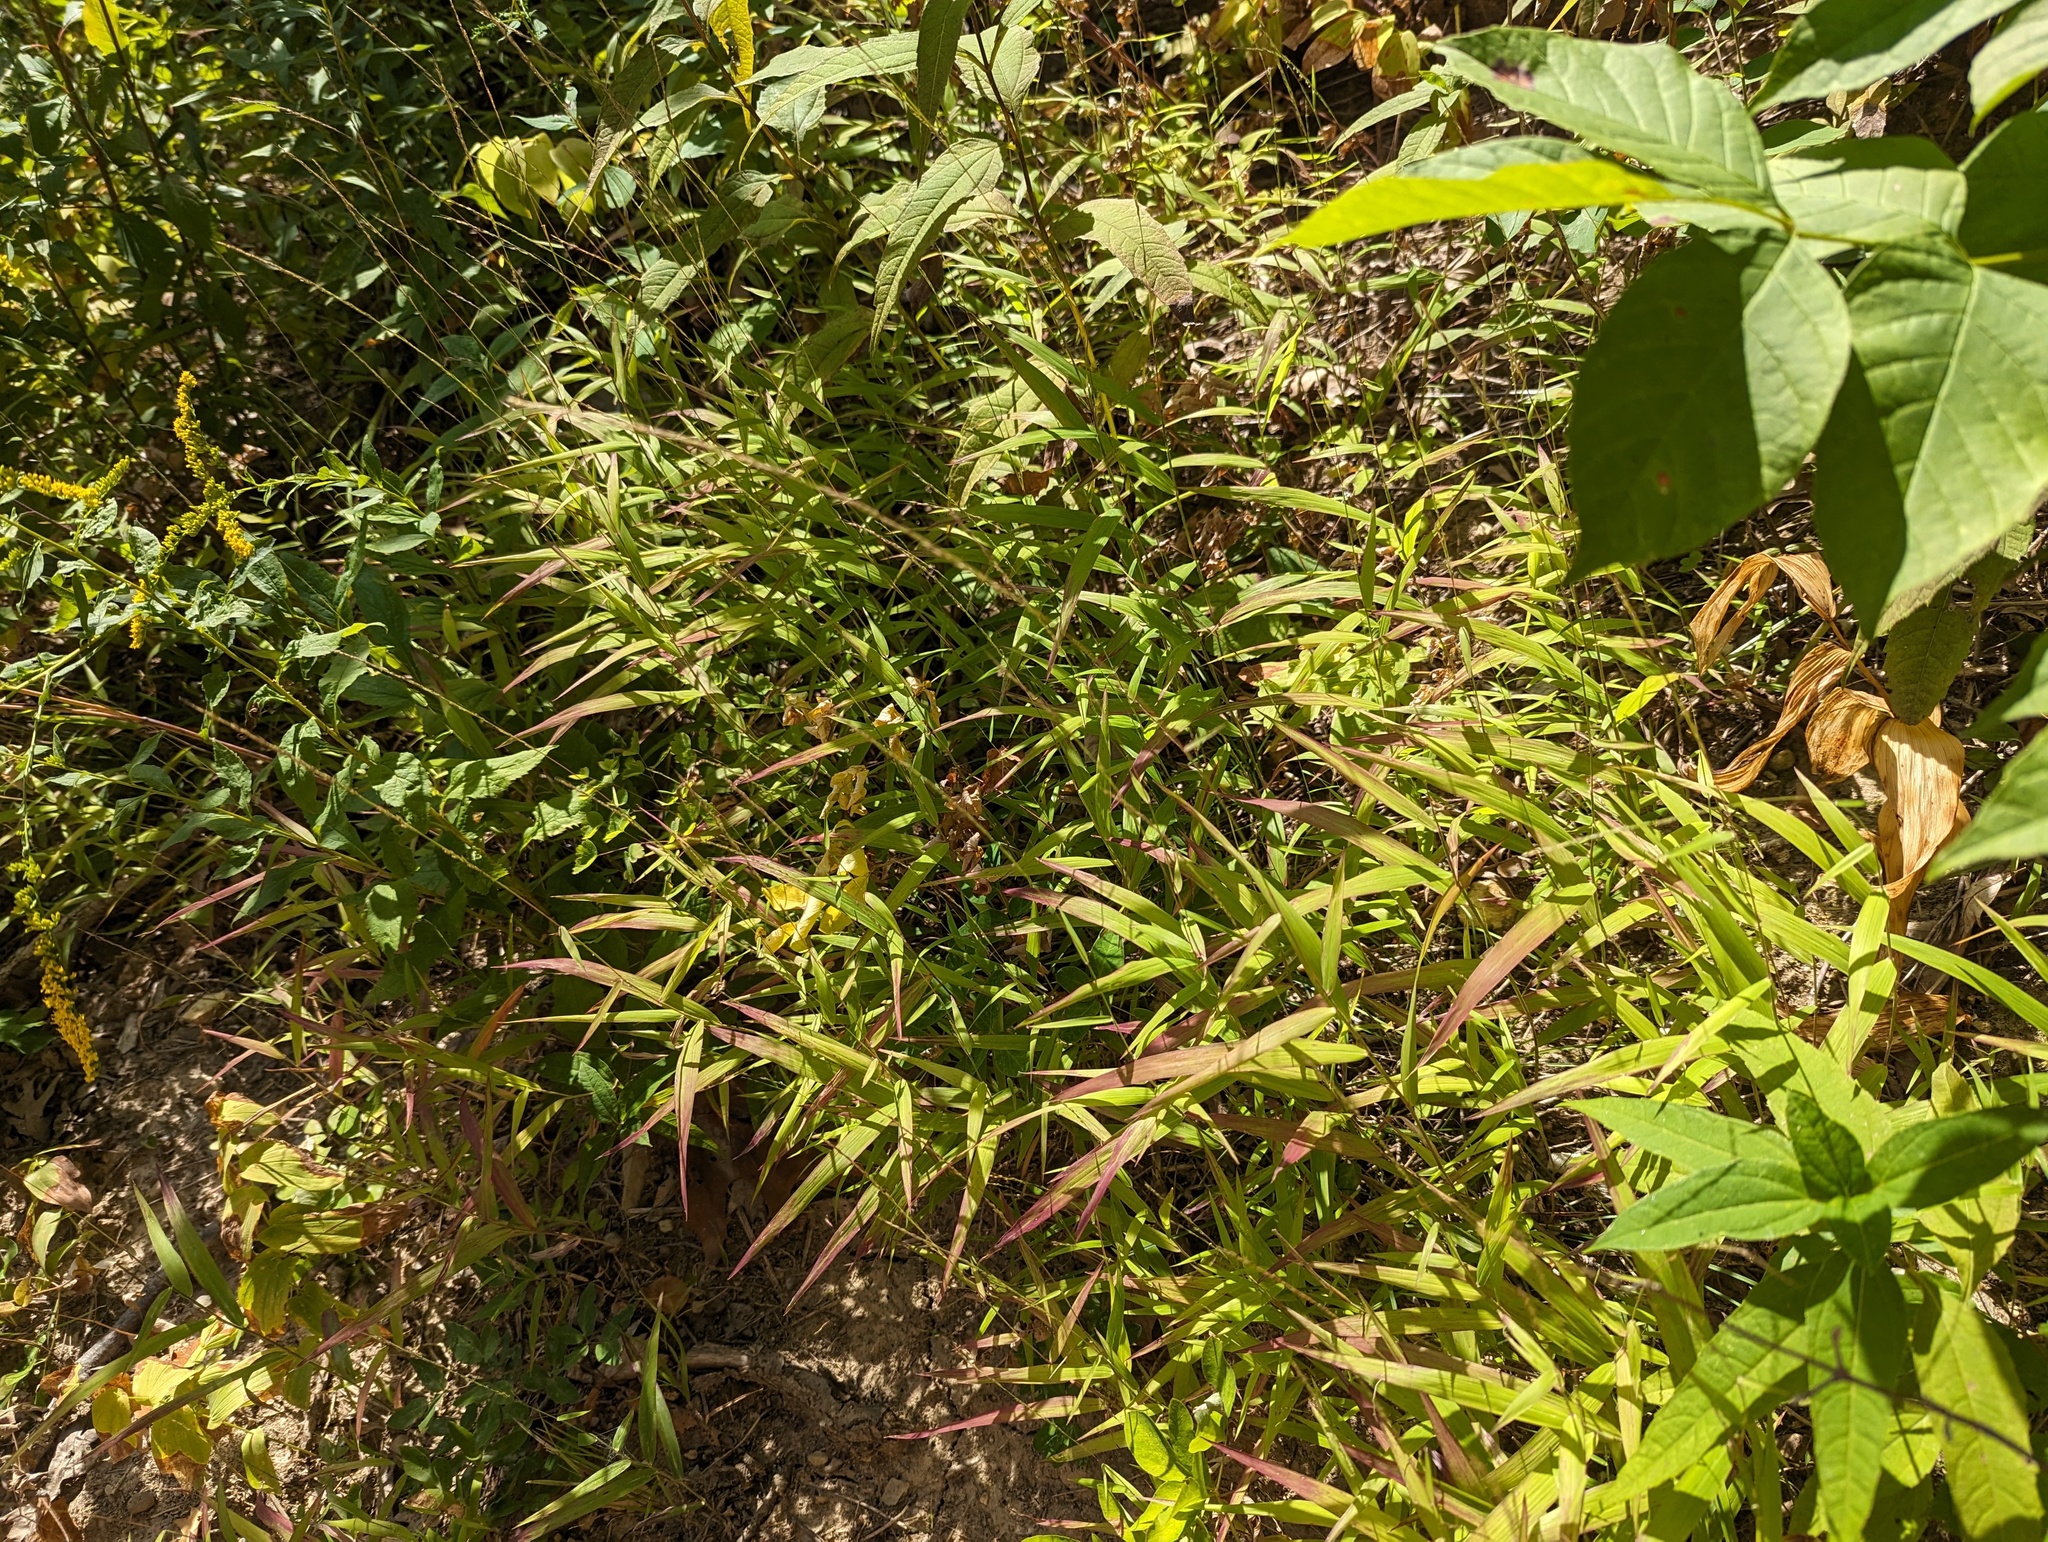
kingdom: Plantae
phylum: Tracheophyta
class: Liliopsida
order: Poales
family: Poaceae
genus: Muhlenbergia
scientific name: Muhlenbergia tenuiflora
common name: Slender muhly
